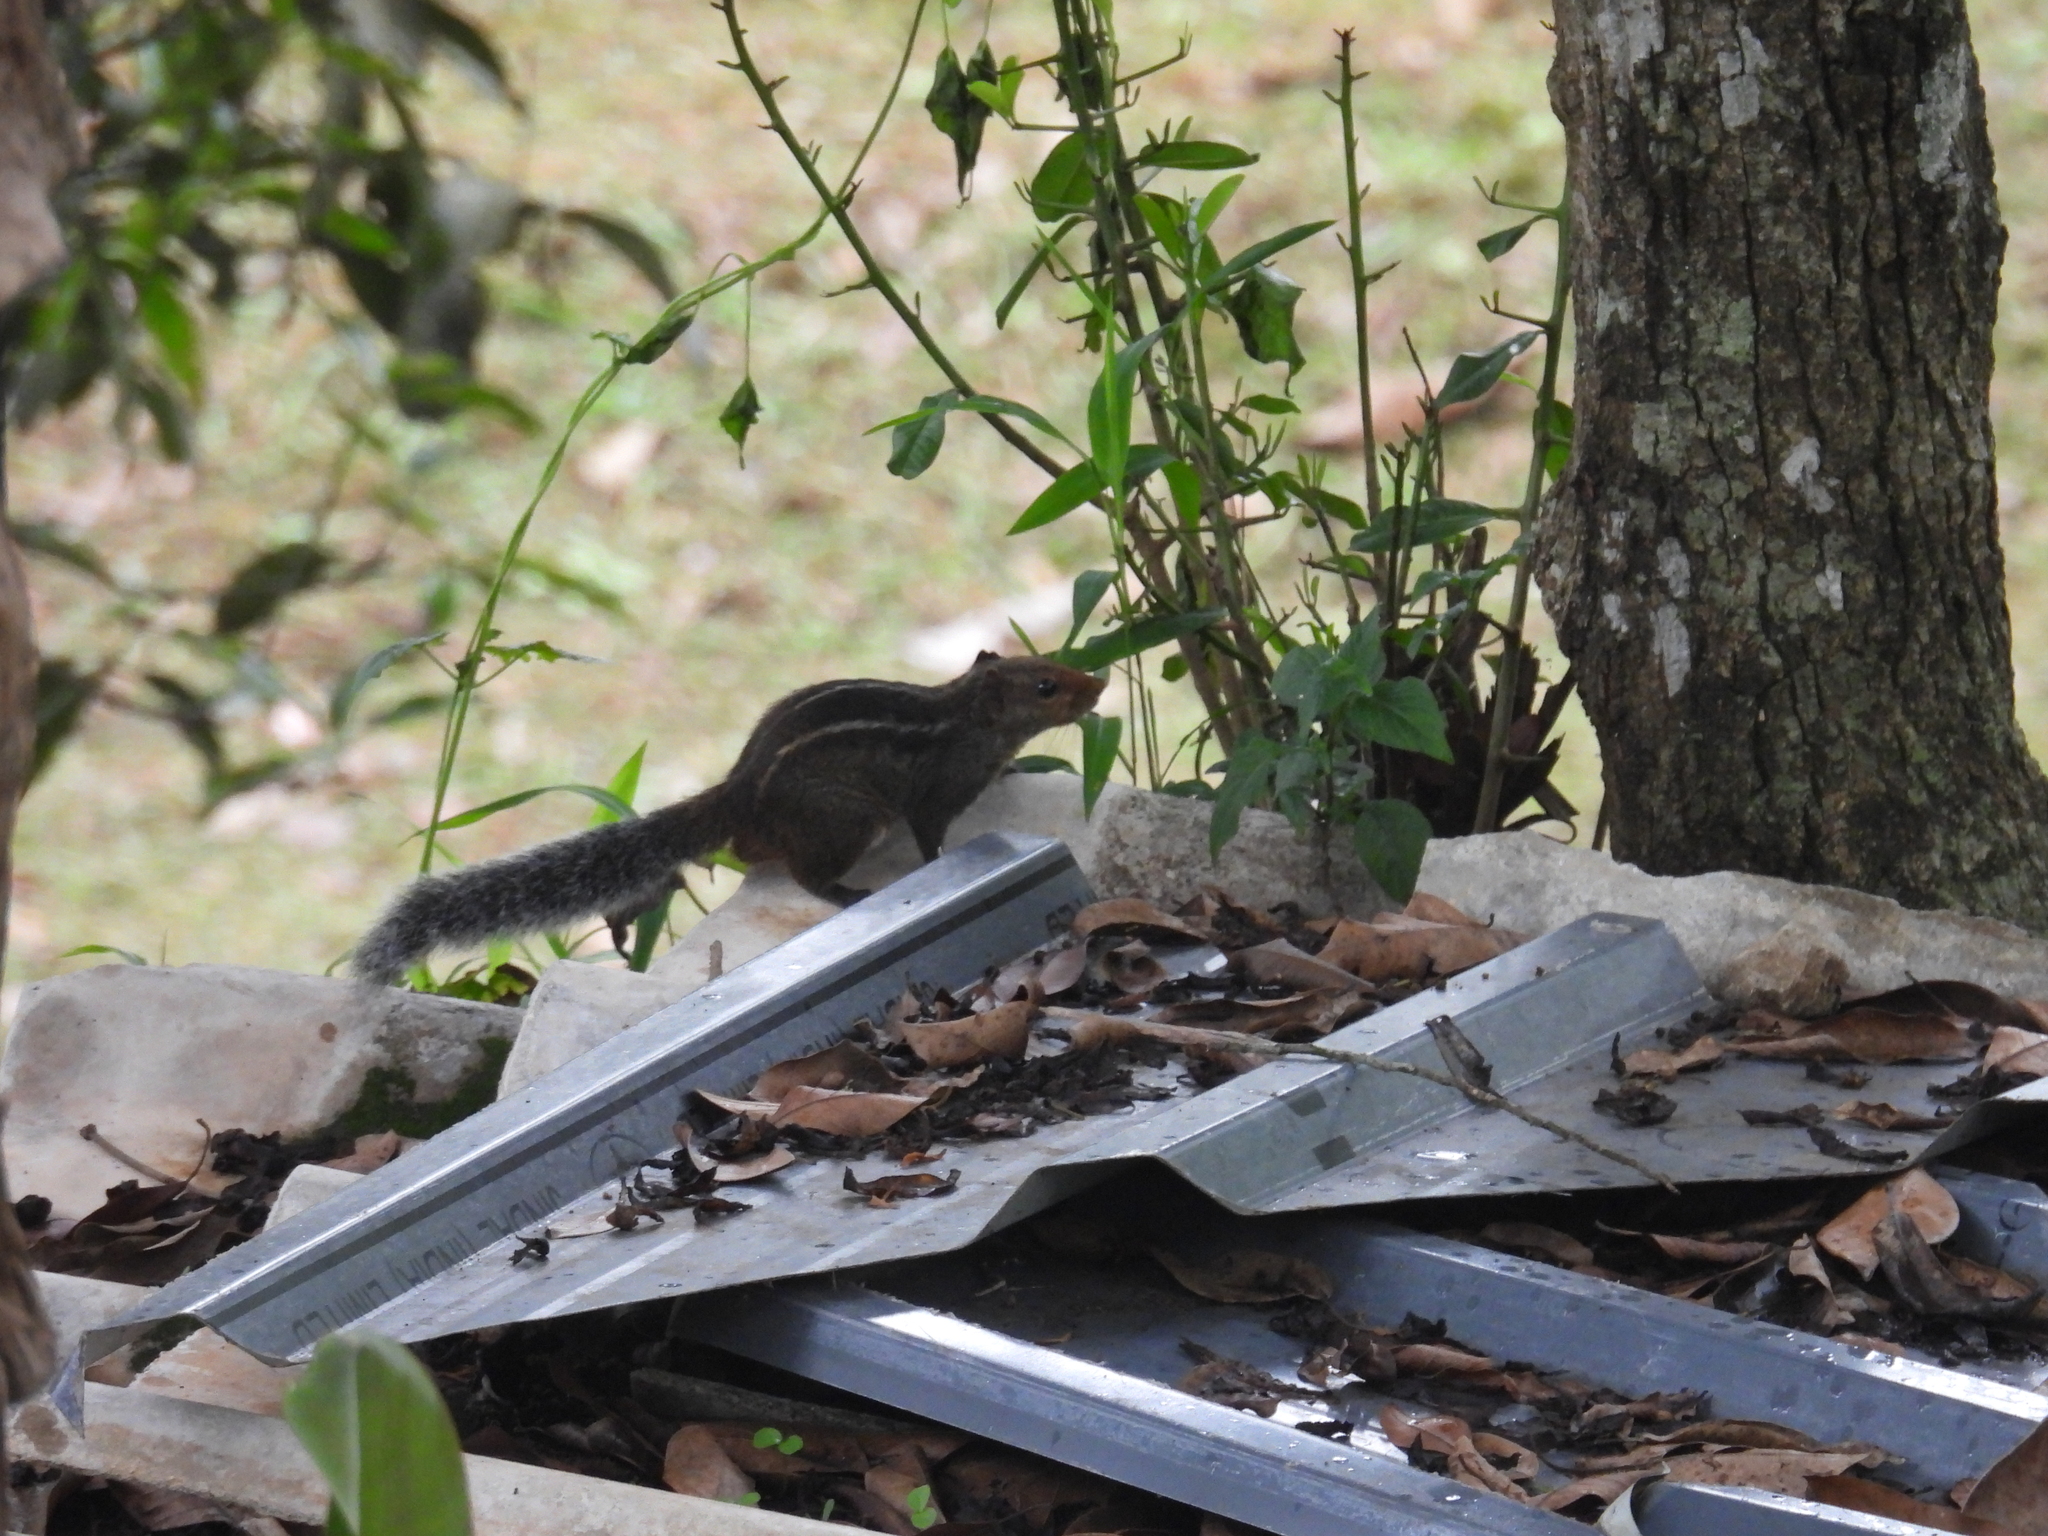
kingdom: Animalia
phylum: Chordata
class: Mammalia
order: Rodentia
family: Sciuridae
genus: Funambulus
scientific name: Funambulus tristriatus
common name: Jungle palm squirrel
